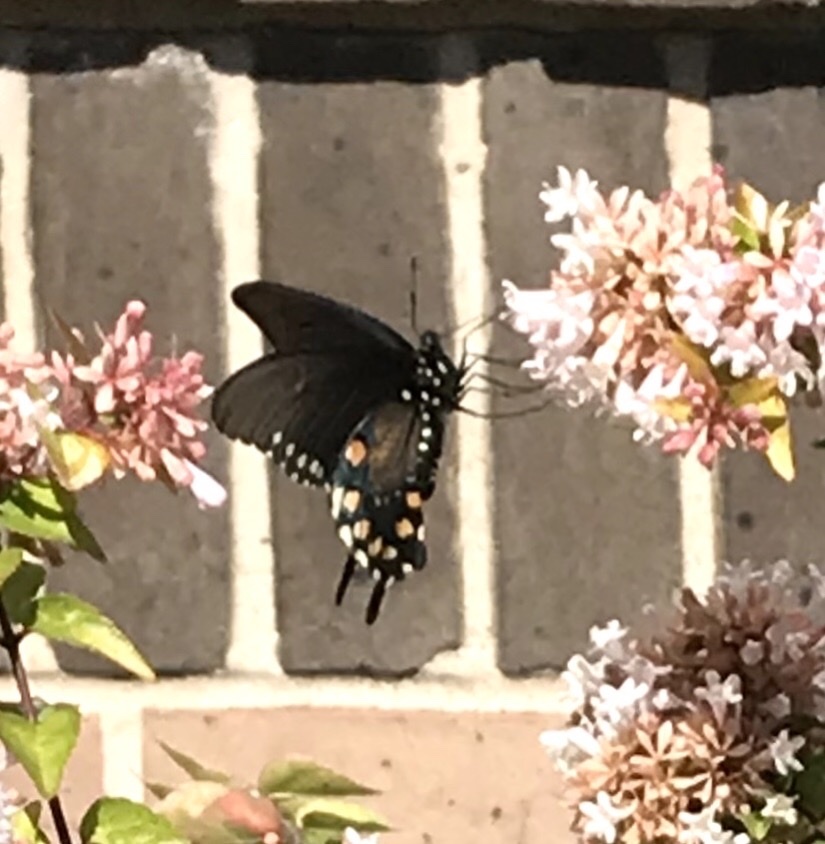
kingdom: Animalia
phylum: Arthropoda
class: Insecta
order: Lepidoptera
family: Papilionidae
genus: Battus
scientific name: Battus philenor
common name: Pipevine swallowtail
